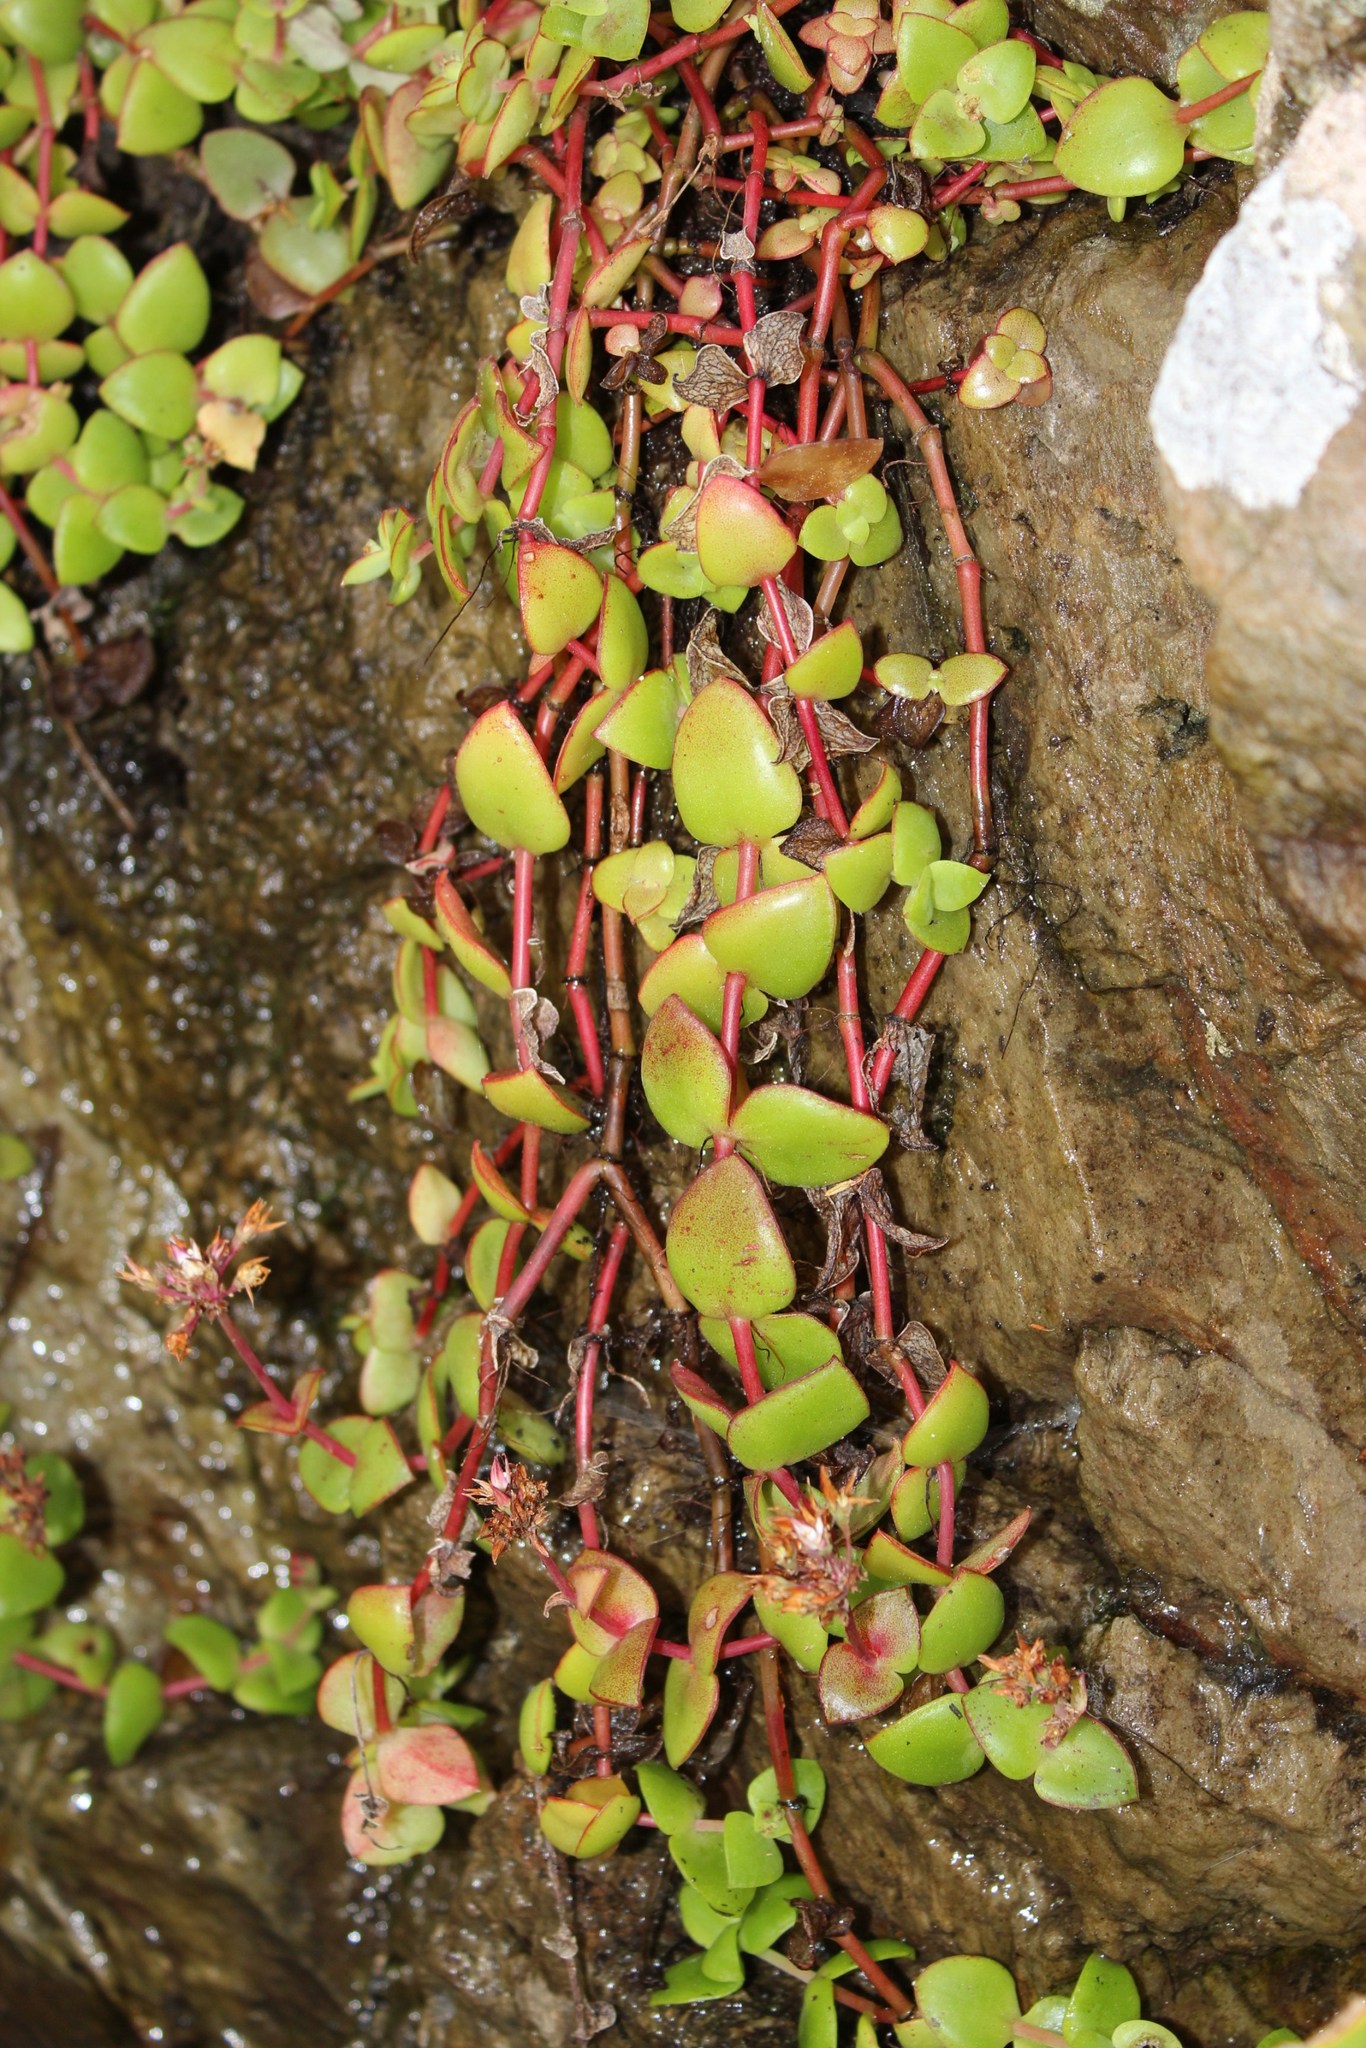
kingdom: Plantae
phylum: Tracheophyta
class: Magnoliopsida
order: Saxifragales
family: Crassulaceae
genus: Crassula
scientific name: Crassula pellucida
